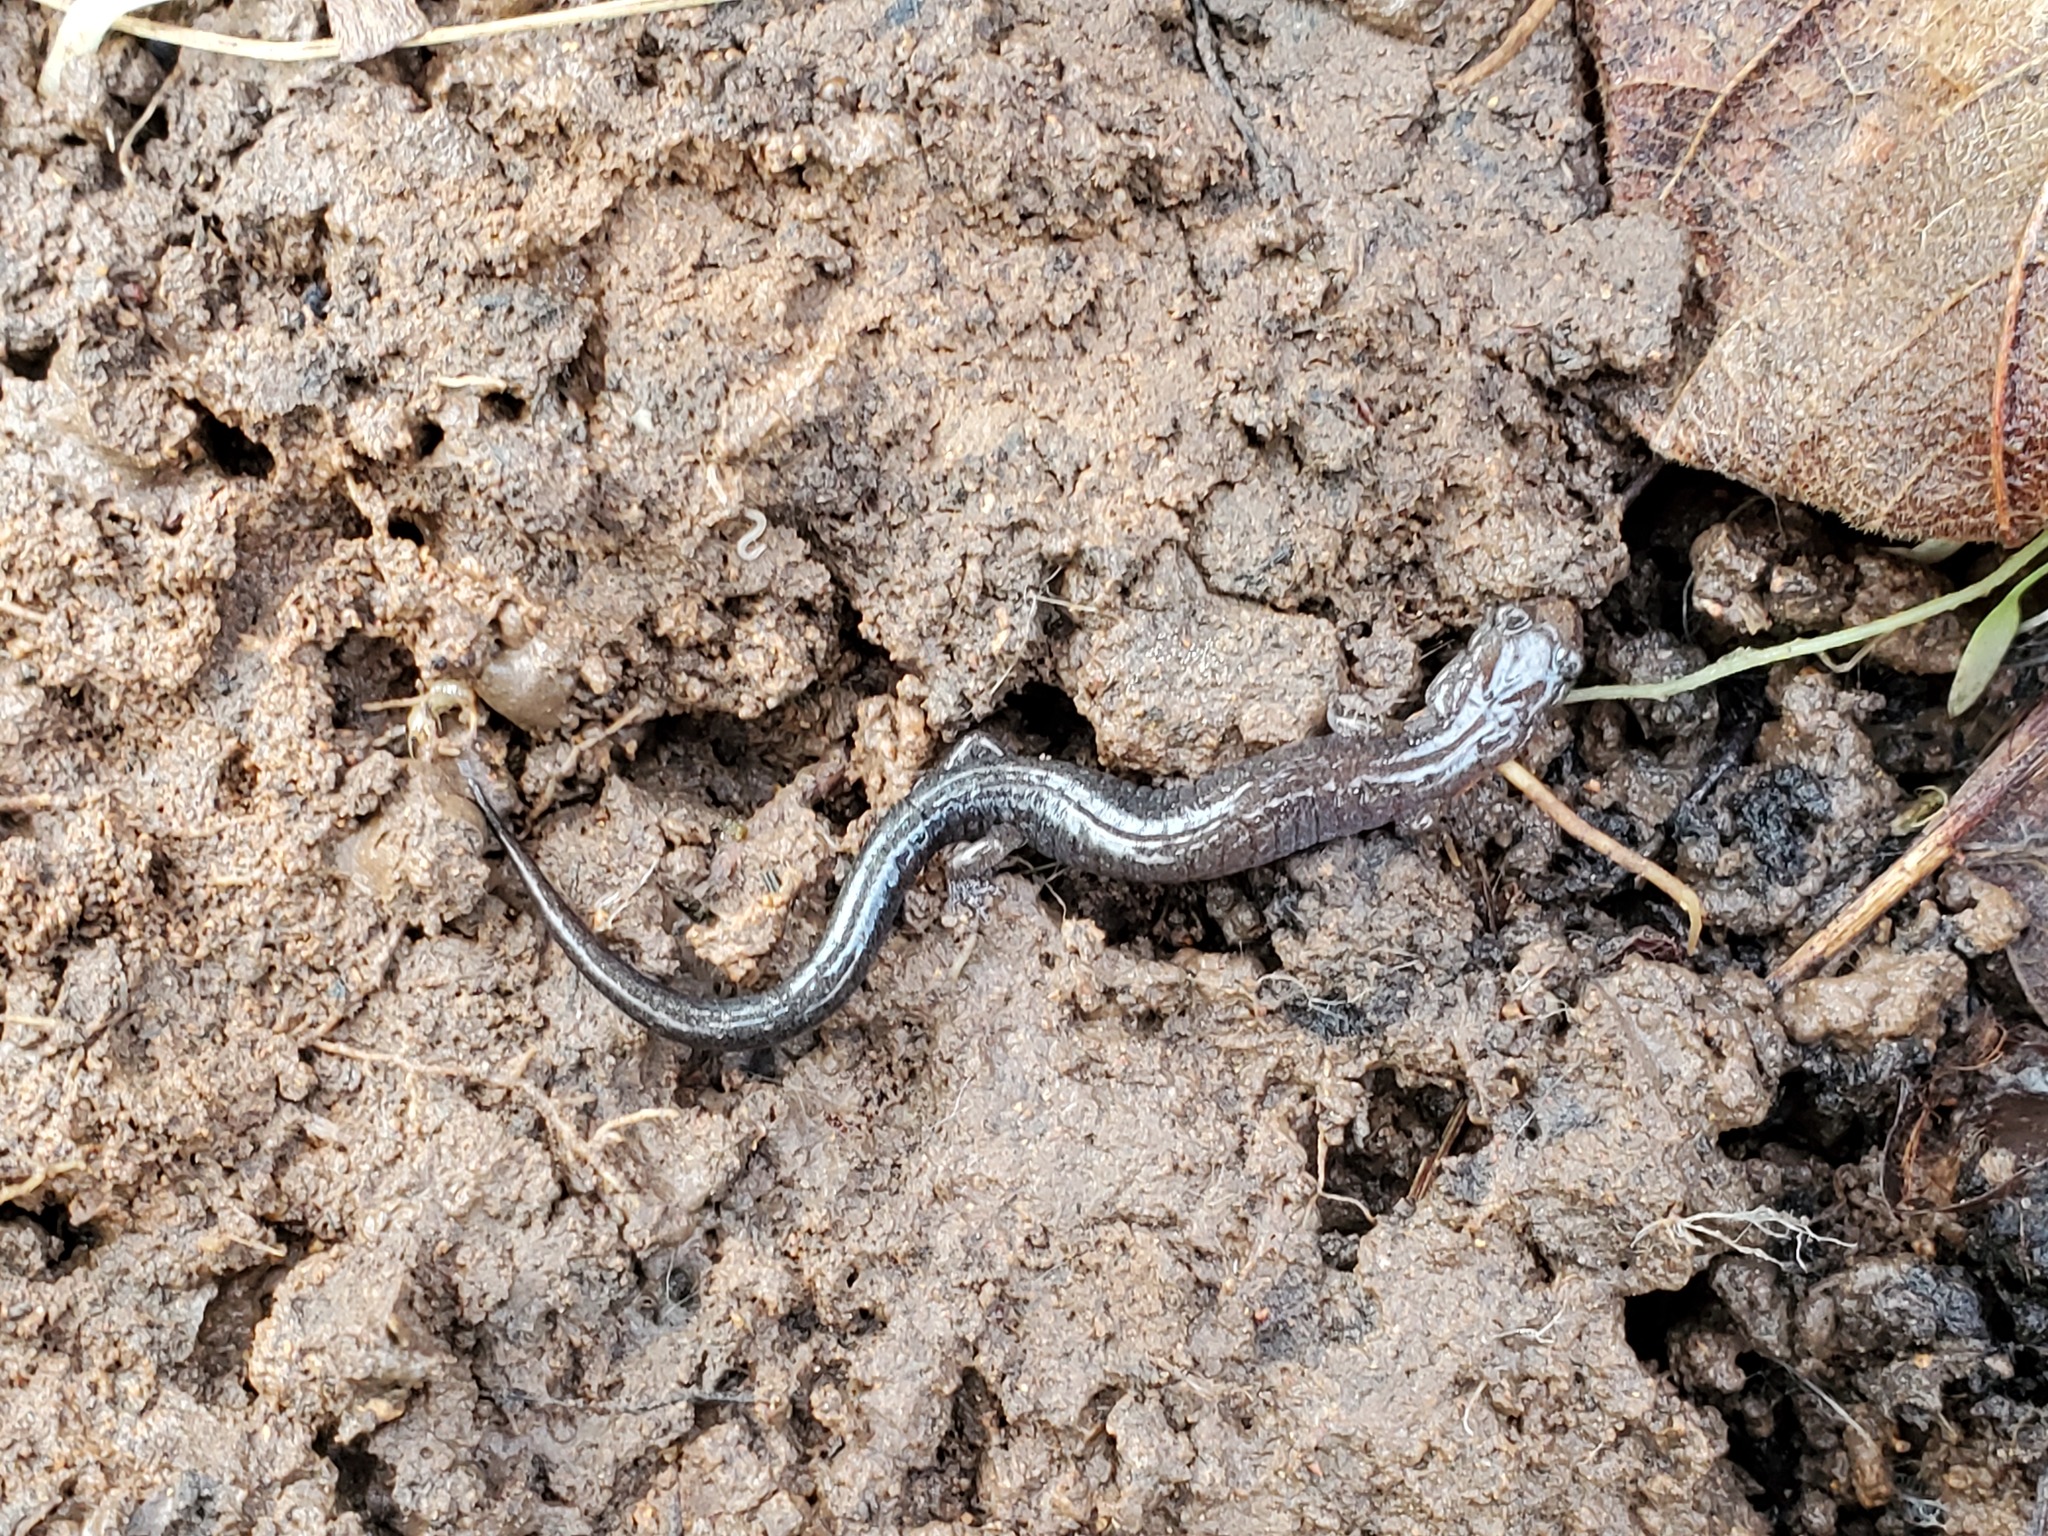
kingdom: Animalia
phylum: Chordata
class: Amphibia
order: Caudata
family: Plethodontidae
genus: Plethodon
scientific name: Plethodon dorsalis
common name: Northern zigzag salamander
